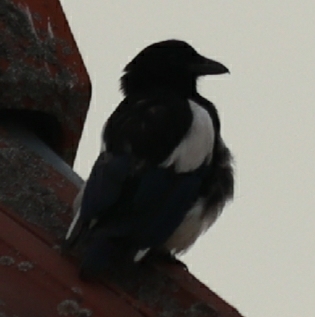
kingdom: Animalia
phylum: Chordata
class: Aves
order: Passeriformes
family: Corvidae
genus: Pica
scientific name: Pica pica
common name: Eurasian magpie
